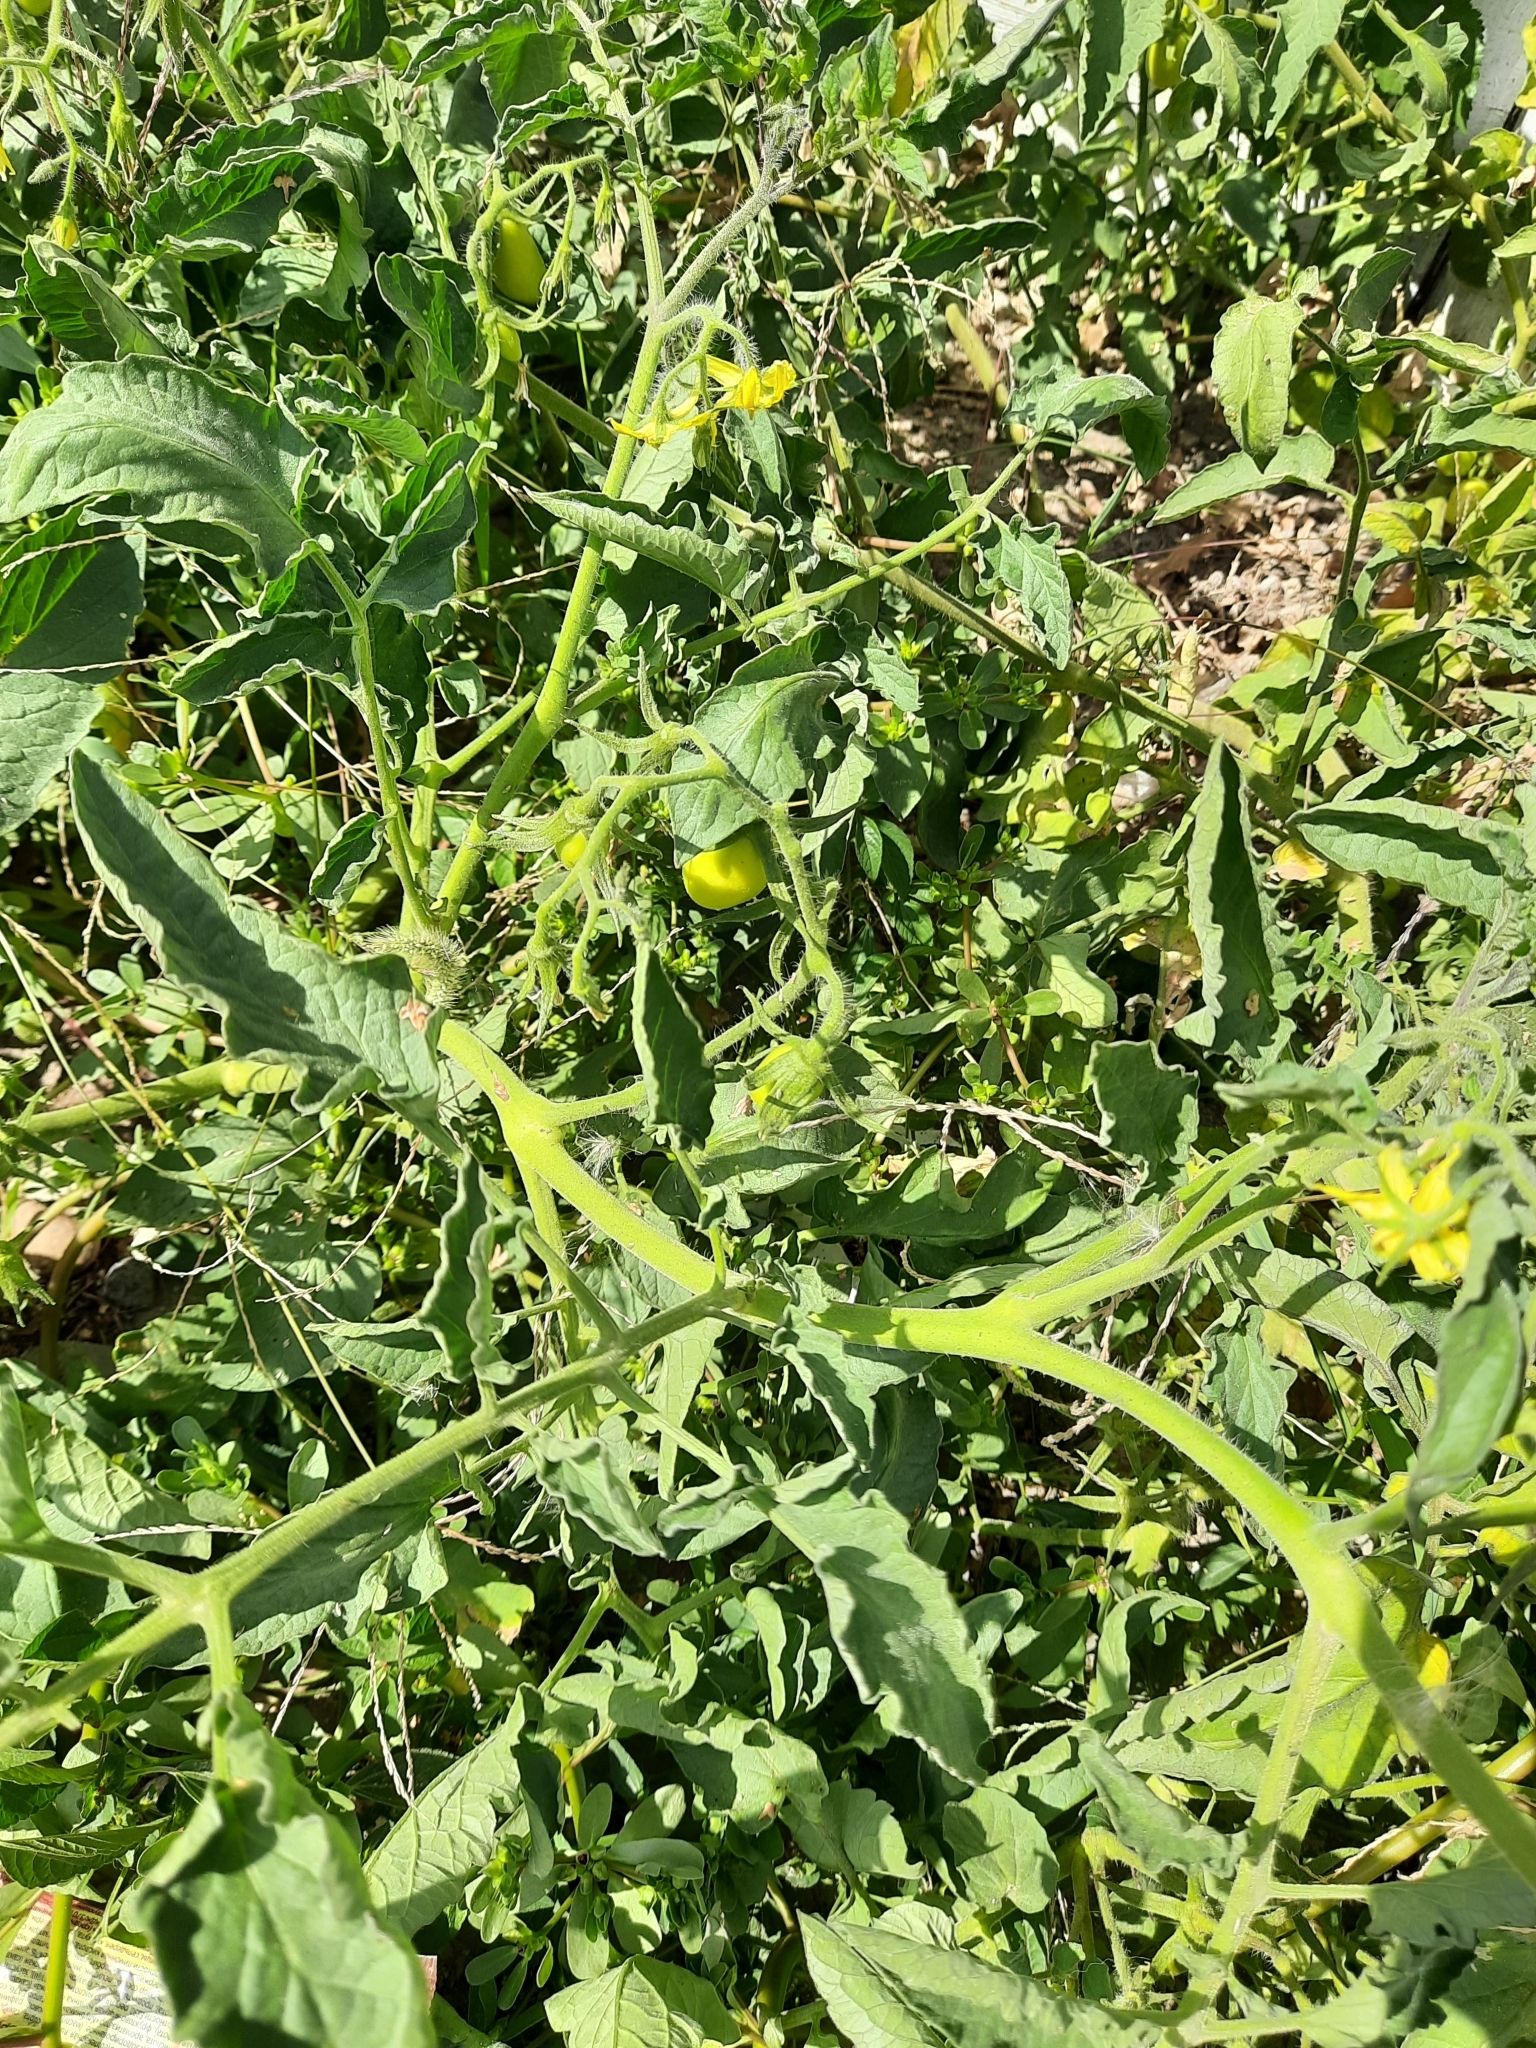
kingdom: Plantae
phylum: Tracheophyta
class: Magnoliopsida
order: Solanales
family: Solanaceae
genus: Solanum
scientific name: Solanum lycopersicum
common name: Garden tomato
